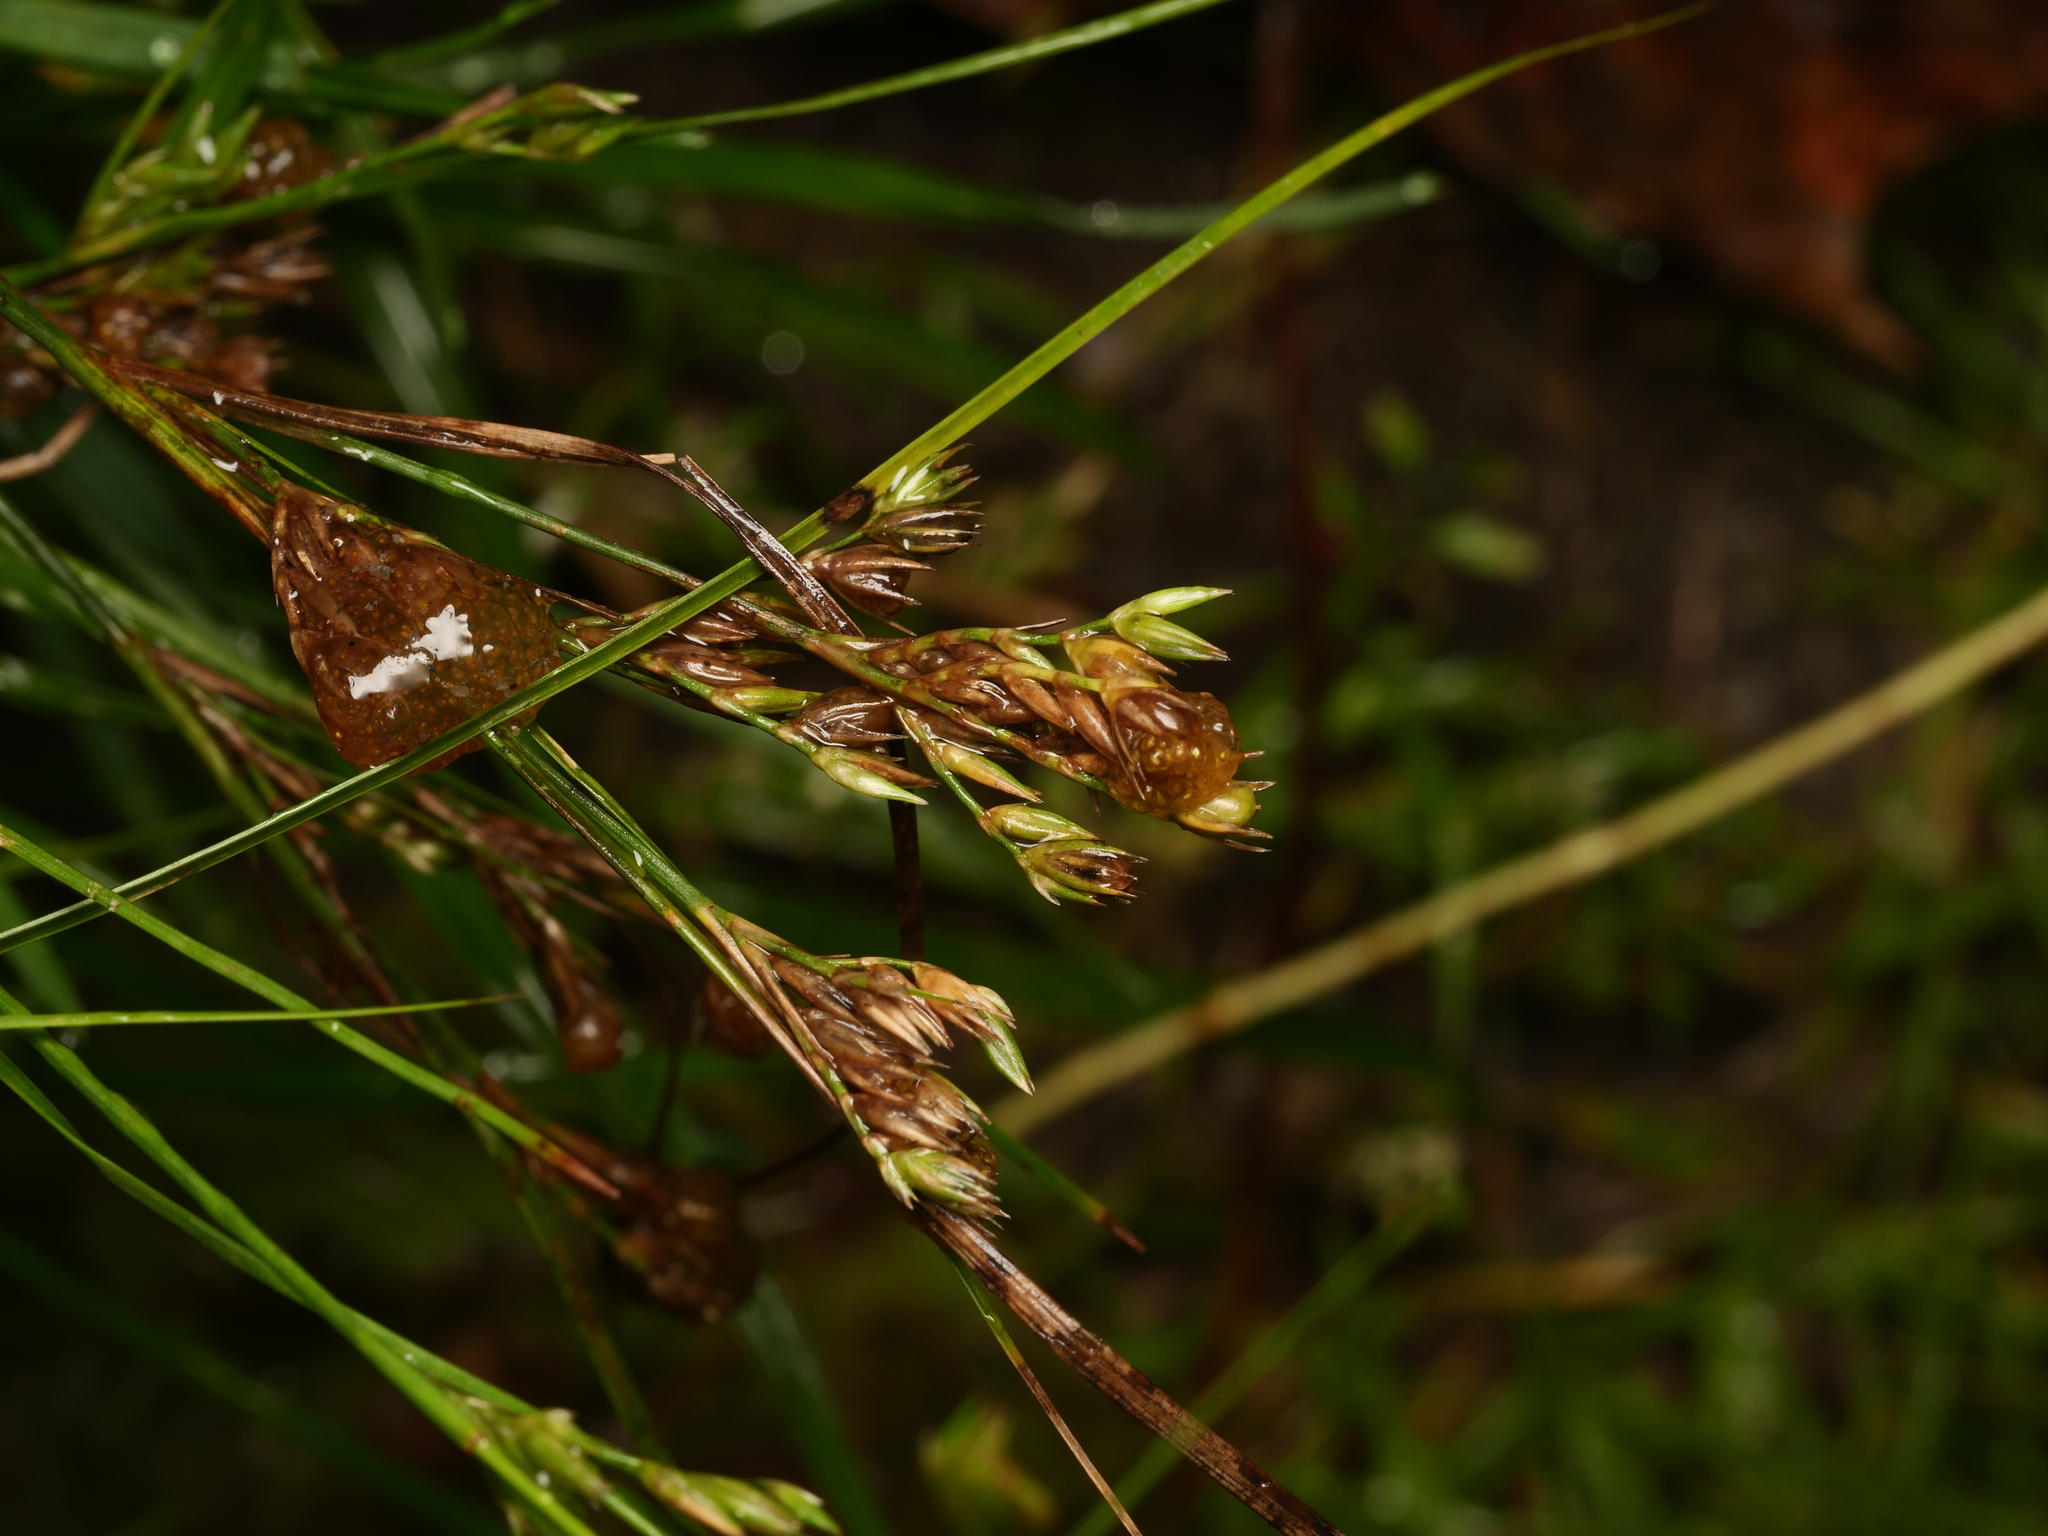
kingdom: Plantae
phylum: Tracheophyta
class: Liliopsida
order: Poales
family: Juncaceae
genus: Juncus
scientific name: Juncus tenuis
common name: Slender rush
